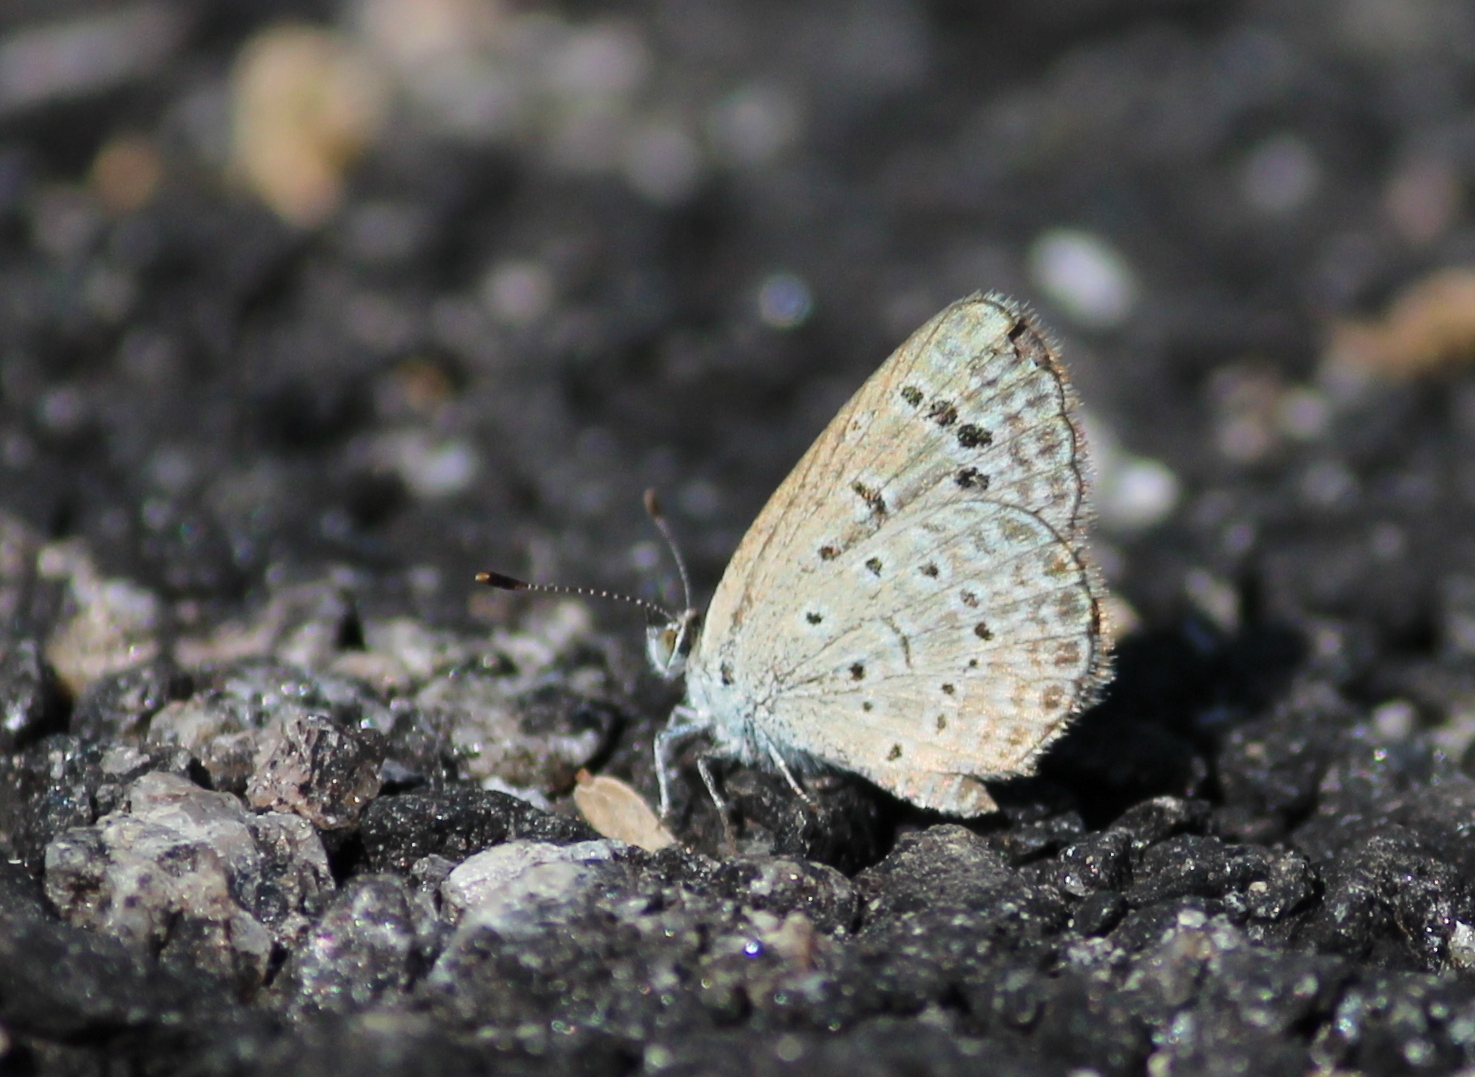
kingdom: Animalia
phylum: Arthropoda
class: Insecta
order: Lepidoptera
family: Lycaenidae
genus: Zizeeria
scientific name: Zizeeria karsandra
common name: Dark grass blue
